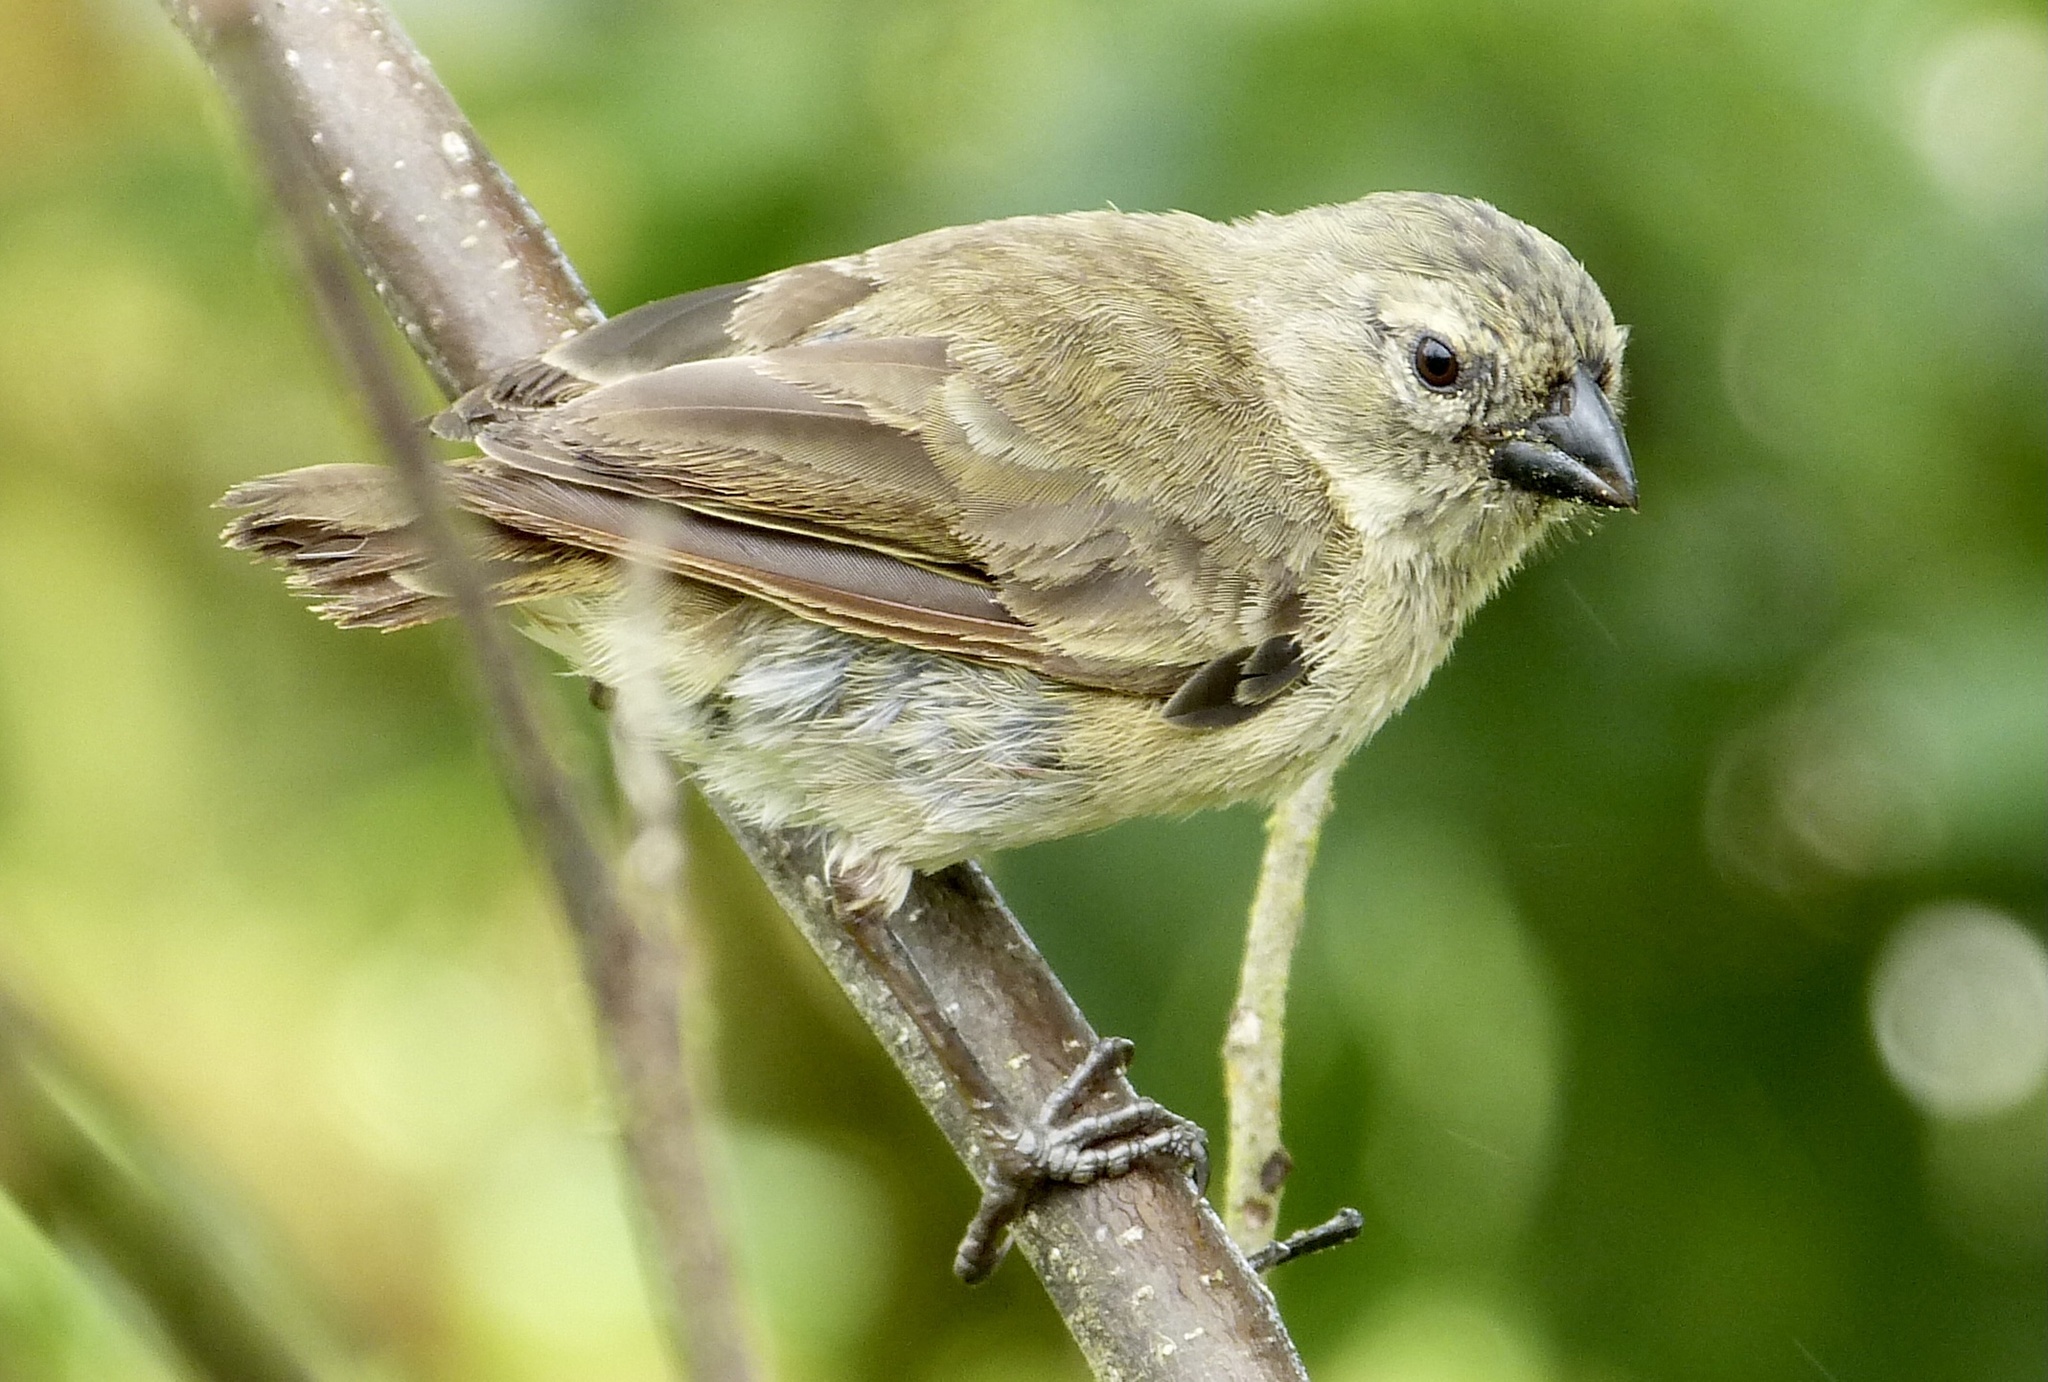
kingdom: Animalia
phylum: Chordata
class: Aves
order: Passeriformes
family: Thraupidae
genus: Camarhynchus
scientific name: Camarhynchus parvulus
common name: Small tree finch
